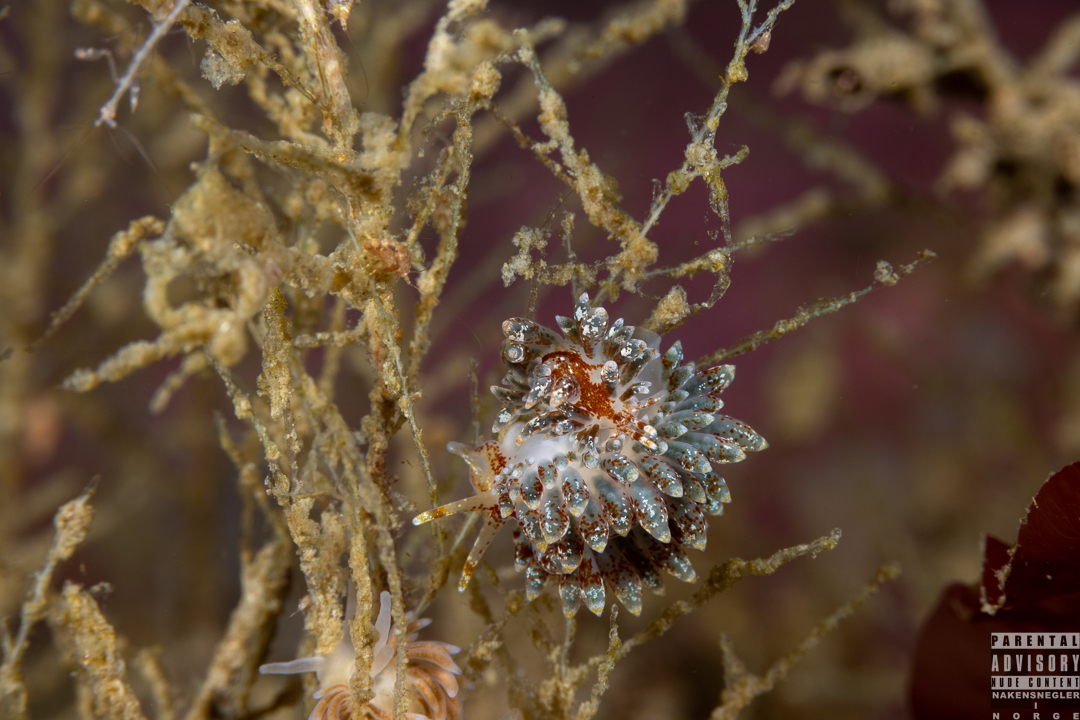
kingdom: Animalia
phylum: Mollusca
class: Gastropoda
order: Nudibranchia
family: Eubranchidae
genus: Amphorina
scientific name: Amphorina pallida
